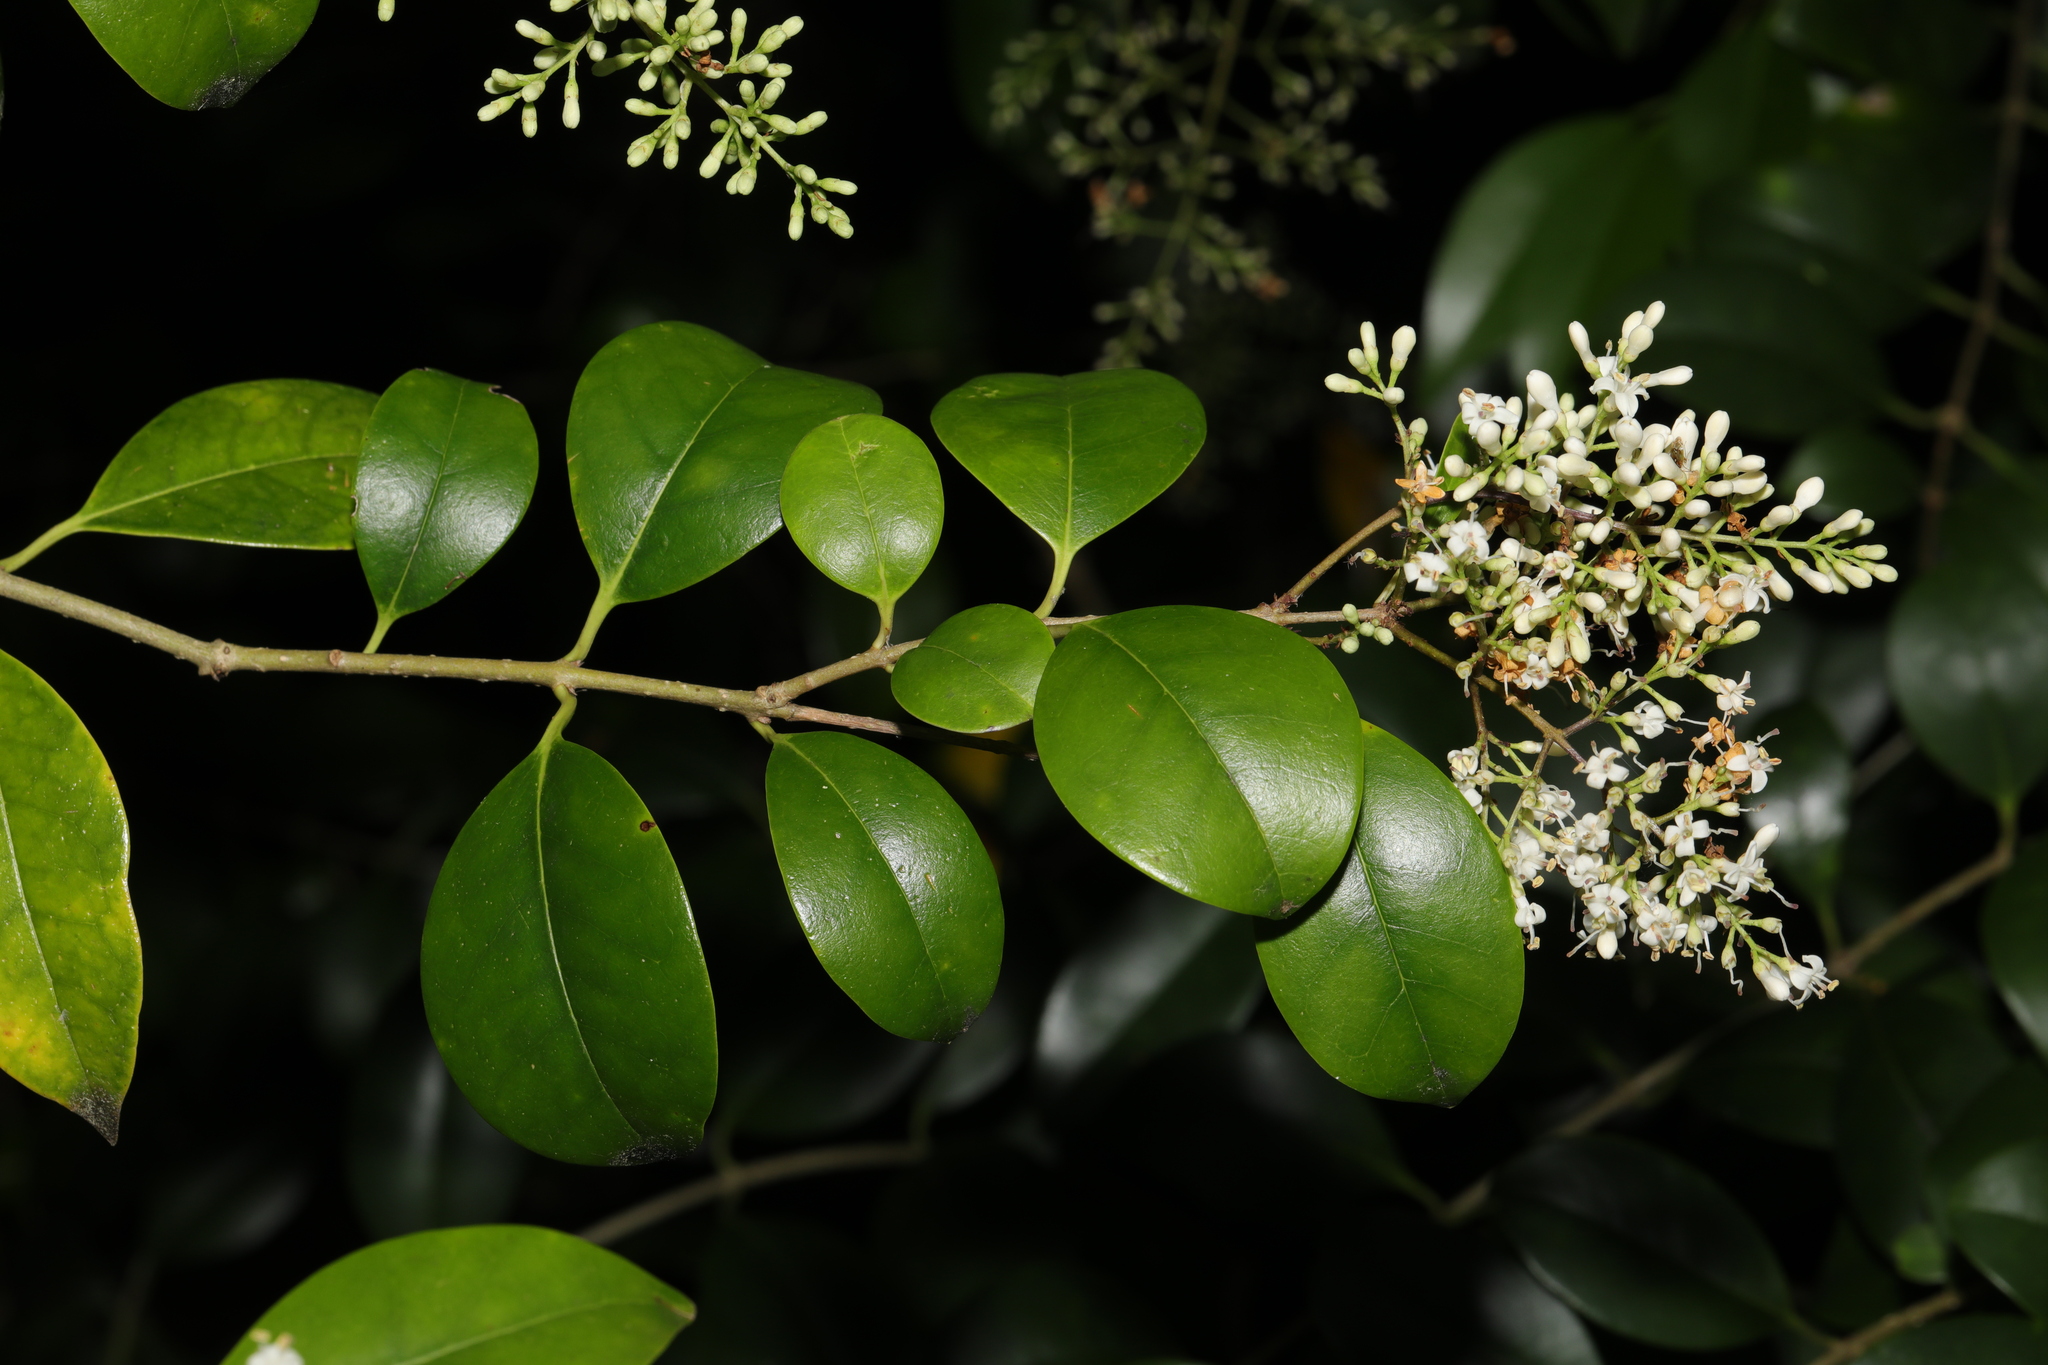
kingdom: Plantae
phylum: Tracheophyta
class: Magnoliopsida
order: Lamiales
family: Oleaceae
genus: Ligustrum
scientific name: Ligustrum ovalifolium
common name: California privet
